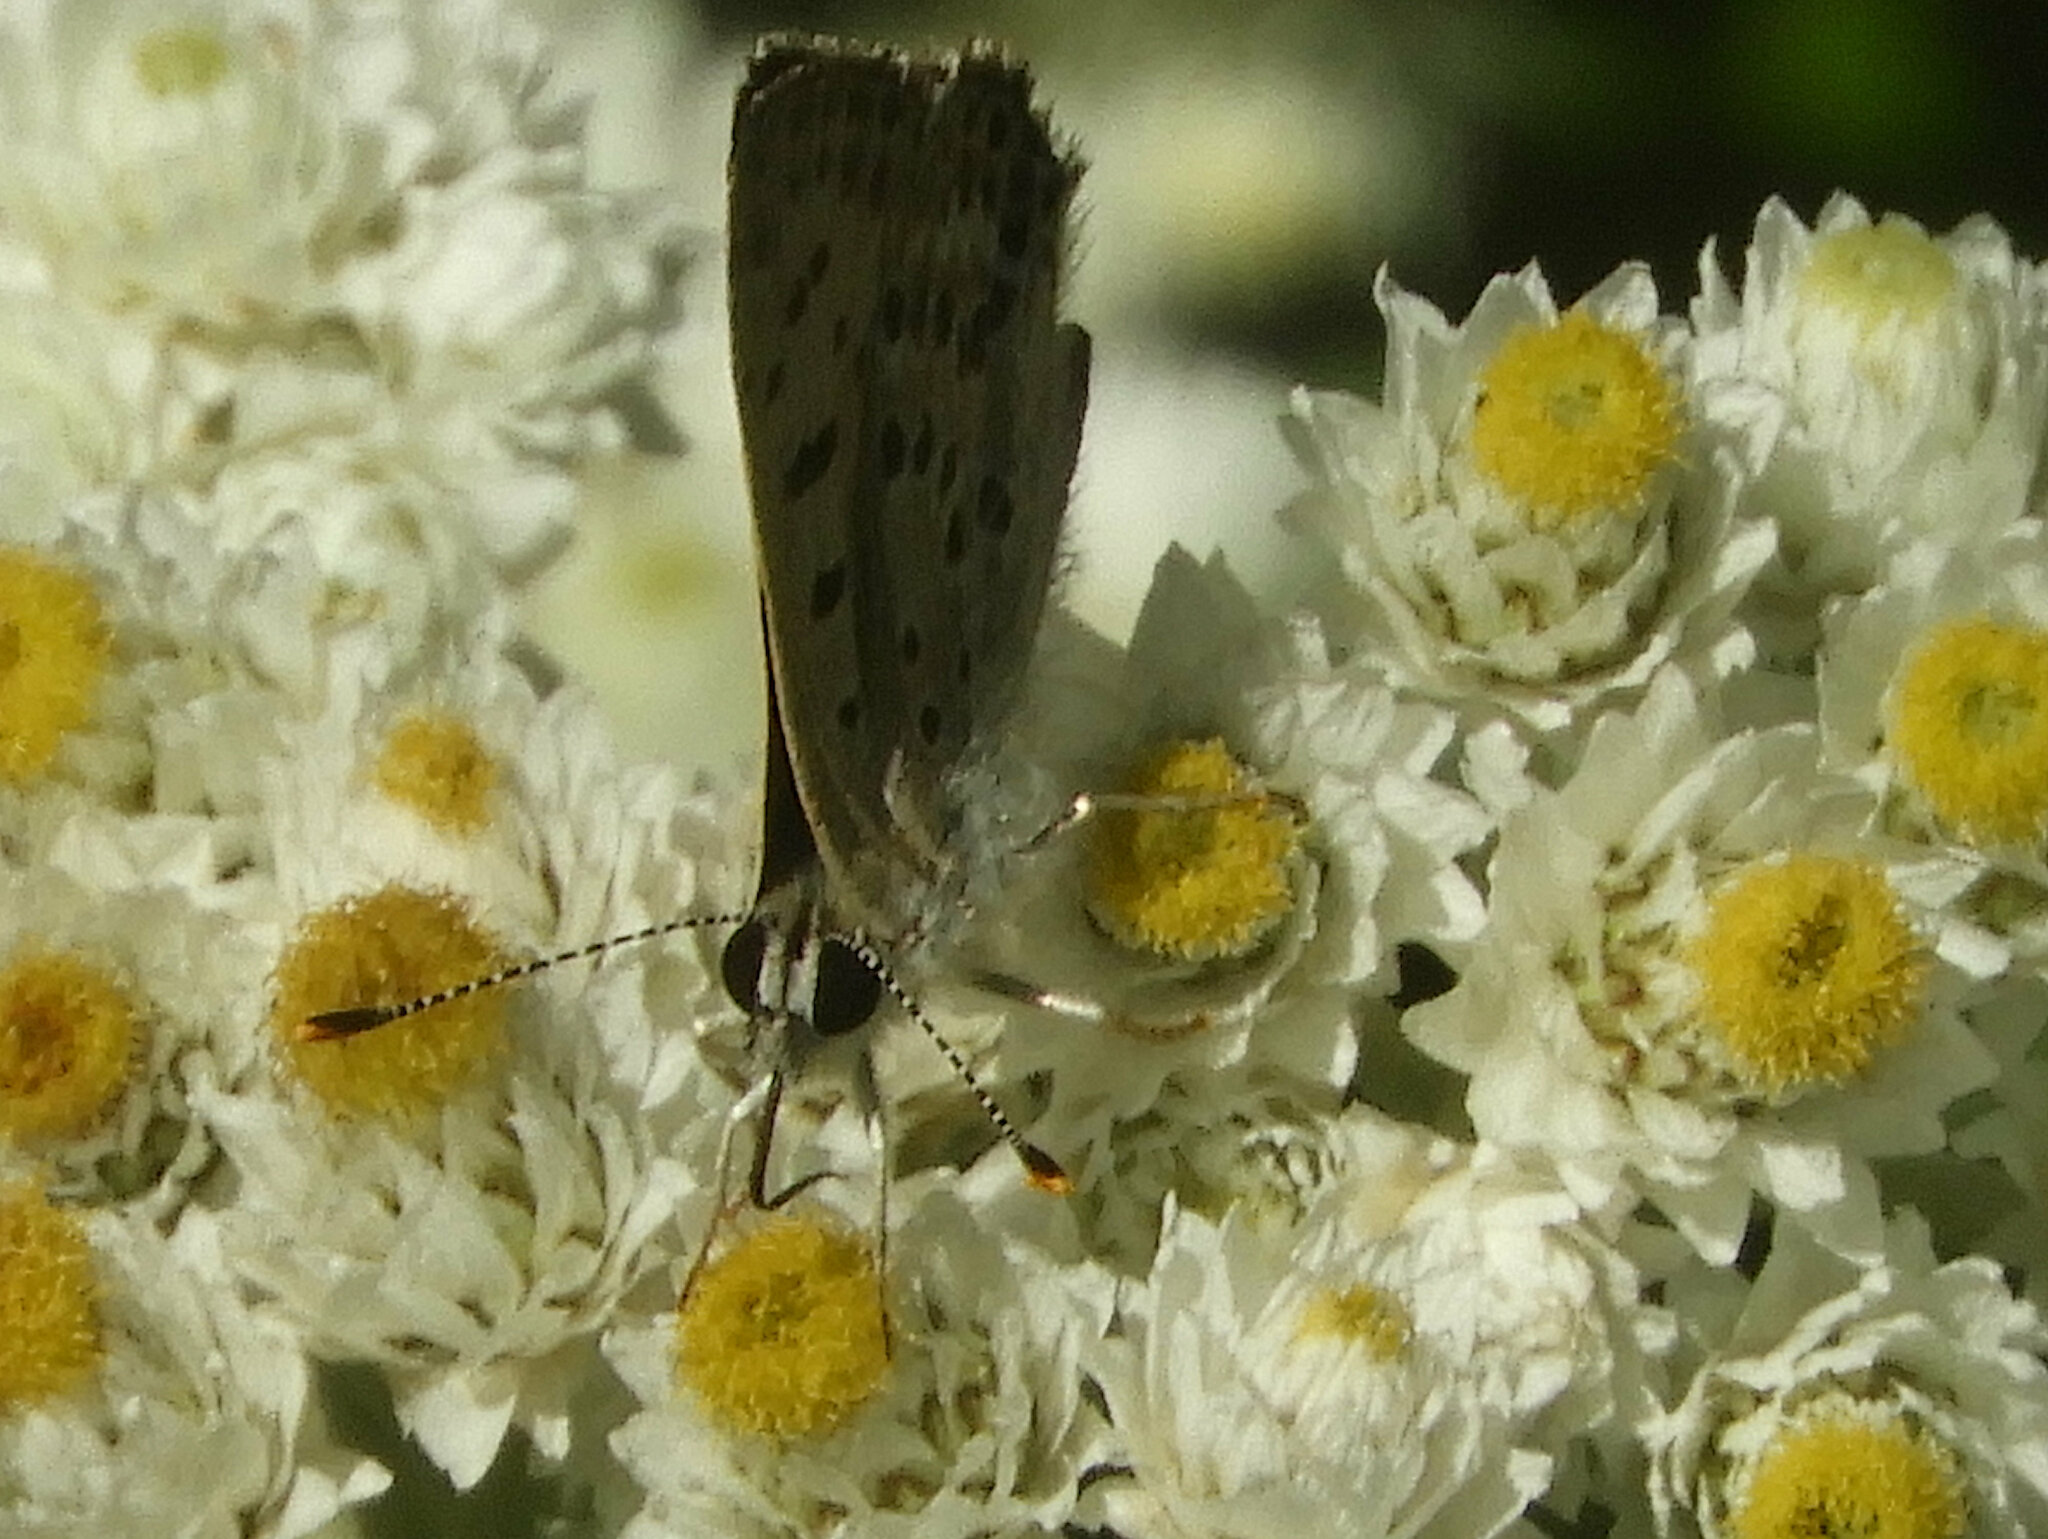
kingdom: Animalia
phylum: Arthropoda
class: Insecta
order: Lepidoptera
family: Lycaenidae
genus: Tharsalea
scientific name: Tharsalea editha
